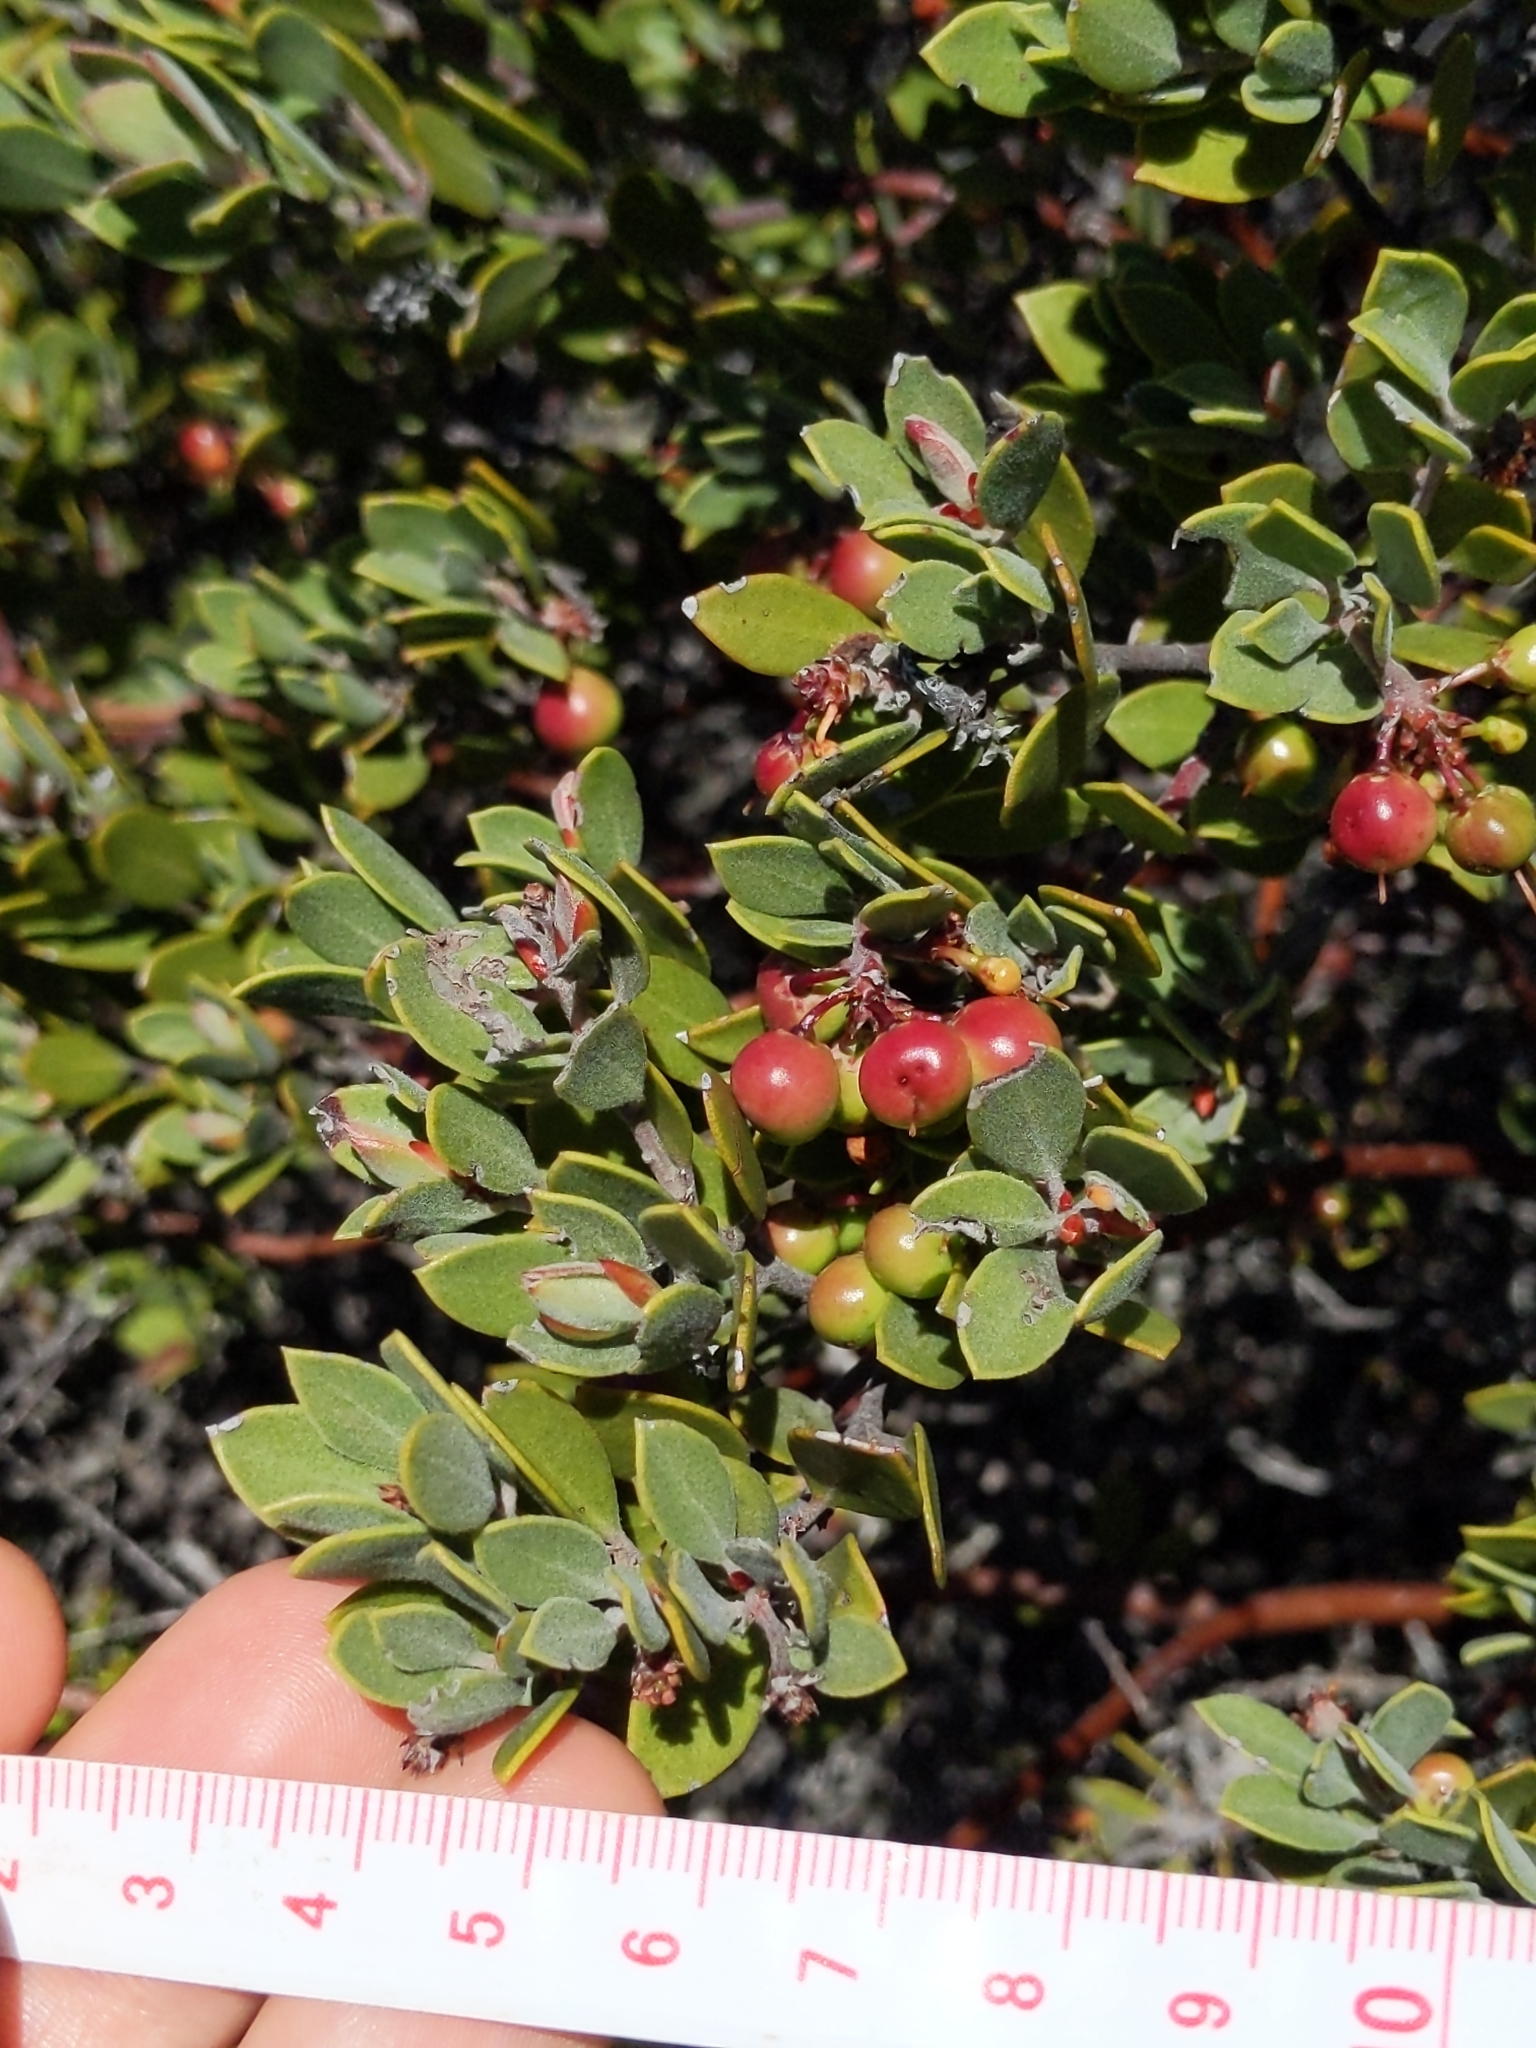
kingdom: Plantae
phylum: Tracheophyta
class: Magnoliopsida
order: Ericales
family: Ericaceae
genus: Arctostaphylos
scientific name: Arctostaphylos montana
